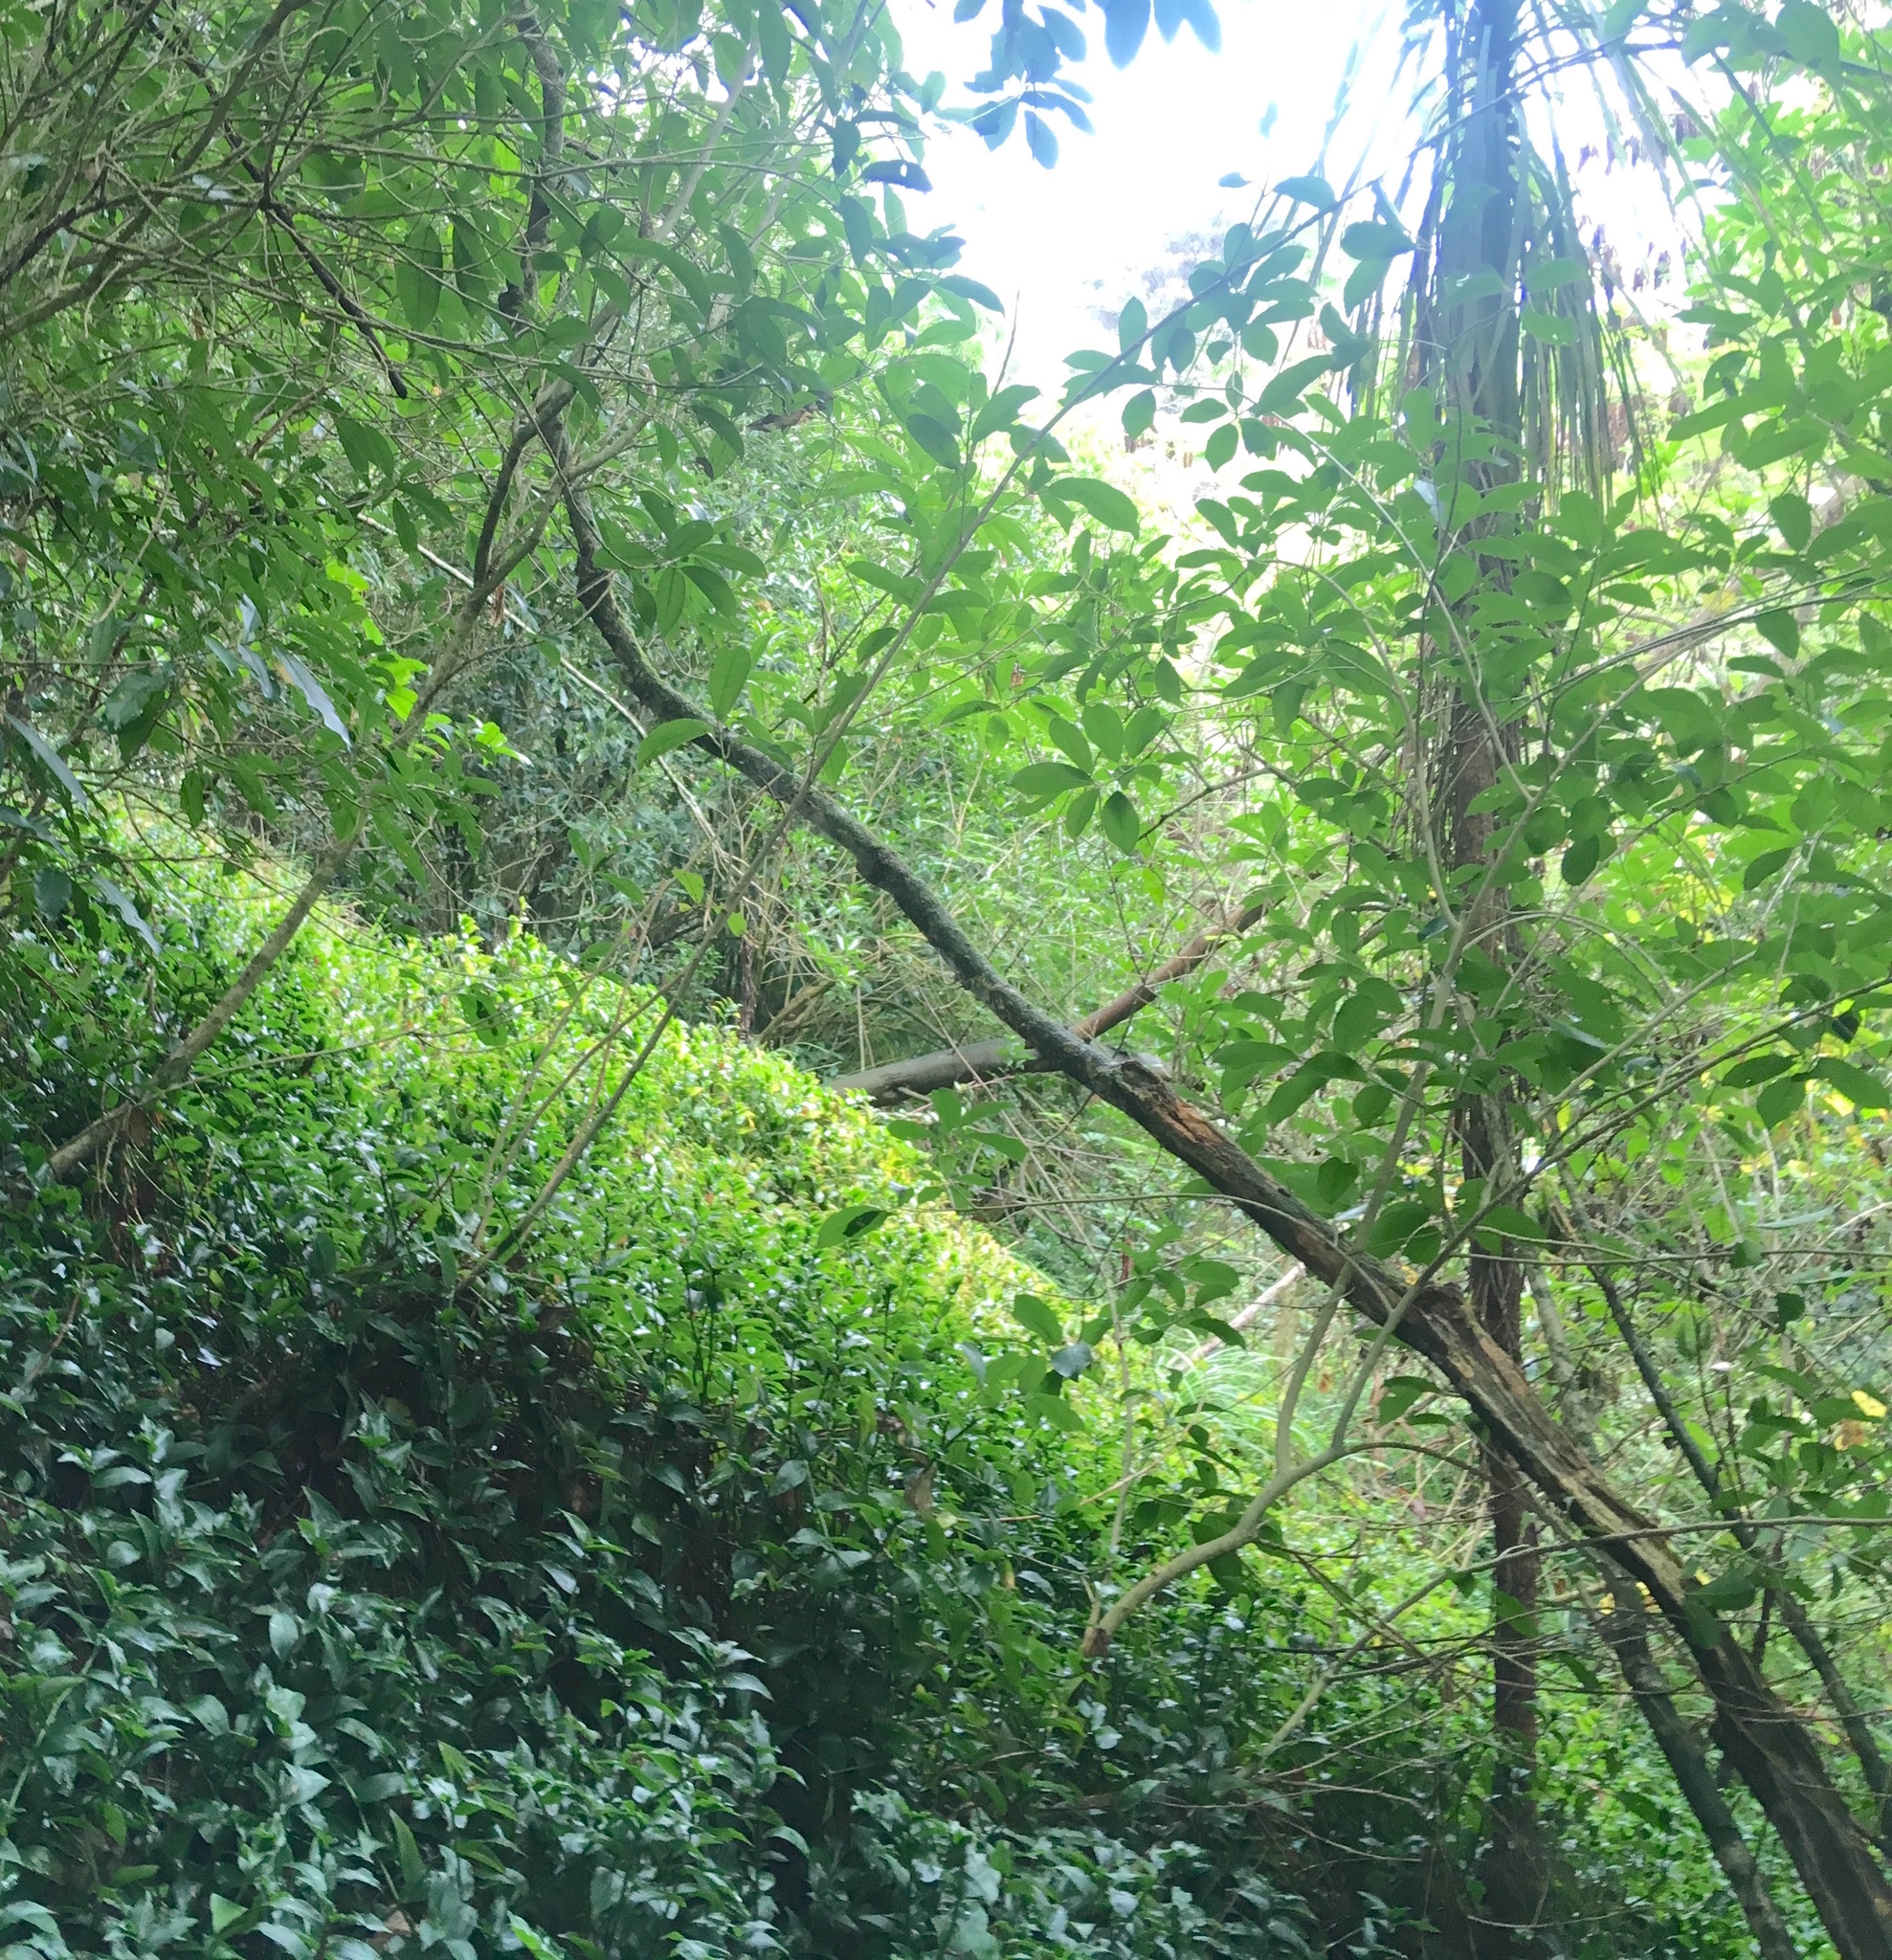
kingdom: Plantae
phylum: Tracheophyta
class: Liliopsida
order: Asparagales
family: Asparagaceae
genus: Cordyline
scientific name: Cordyline australis
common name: Cabbage-palm
